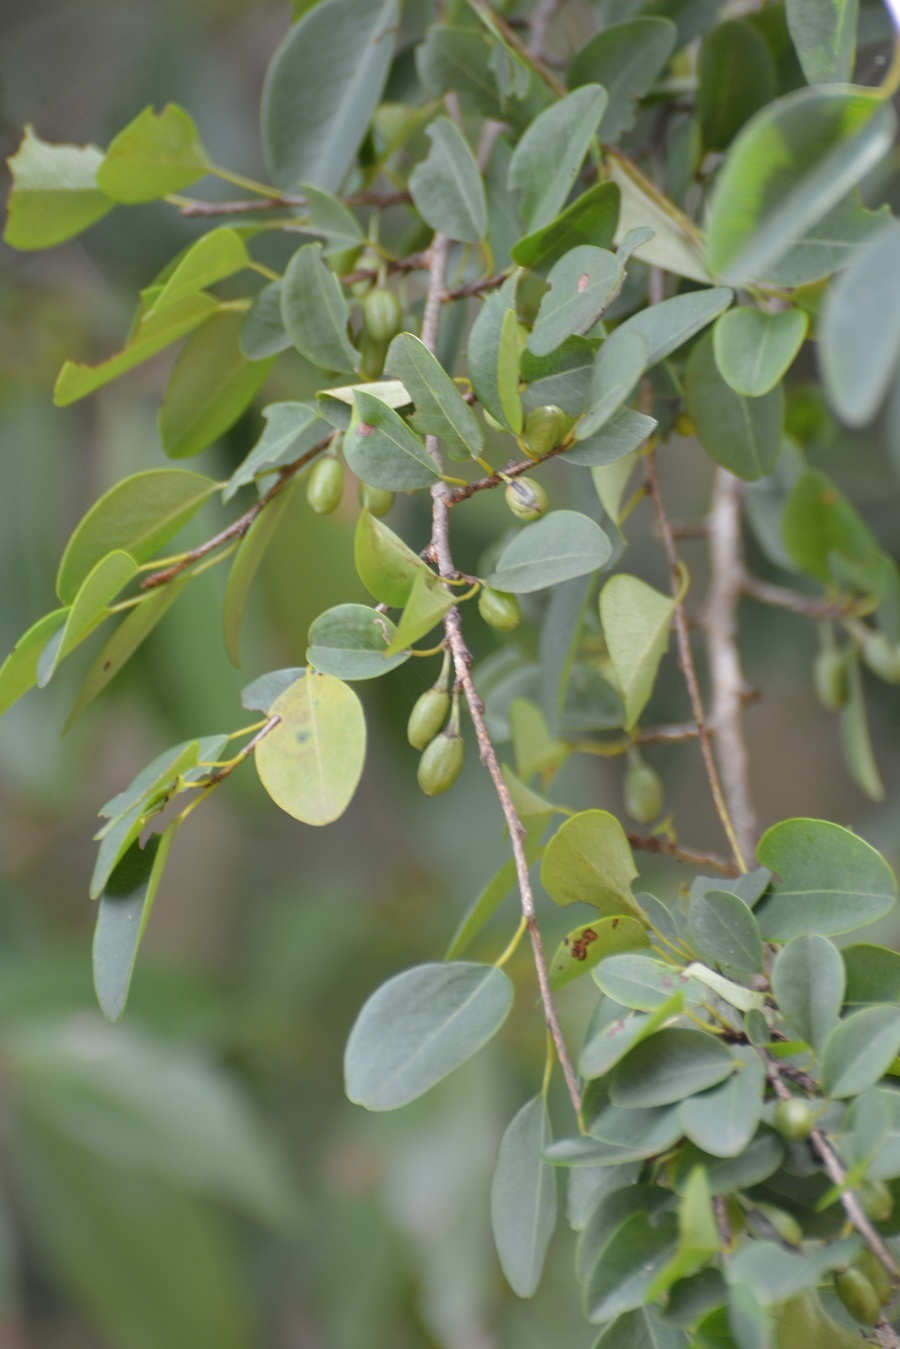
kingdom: Plantae
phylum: Tracheophyta
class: Magnoliopsida
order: Malpighiales
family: Erythroxylaceae
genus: Erythroxylum
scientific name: Erythroxylum guatemalense
